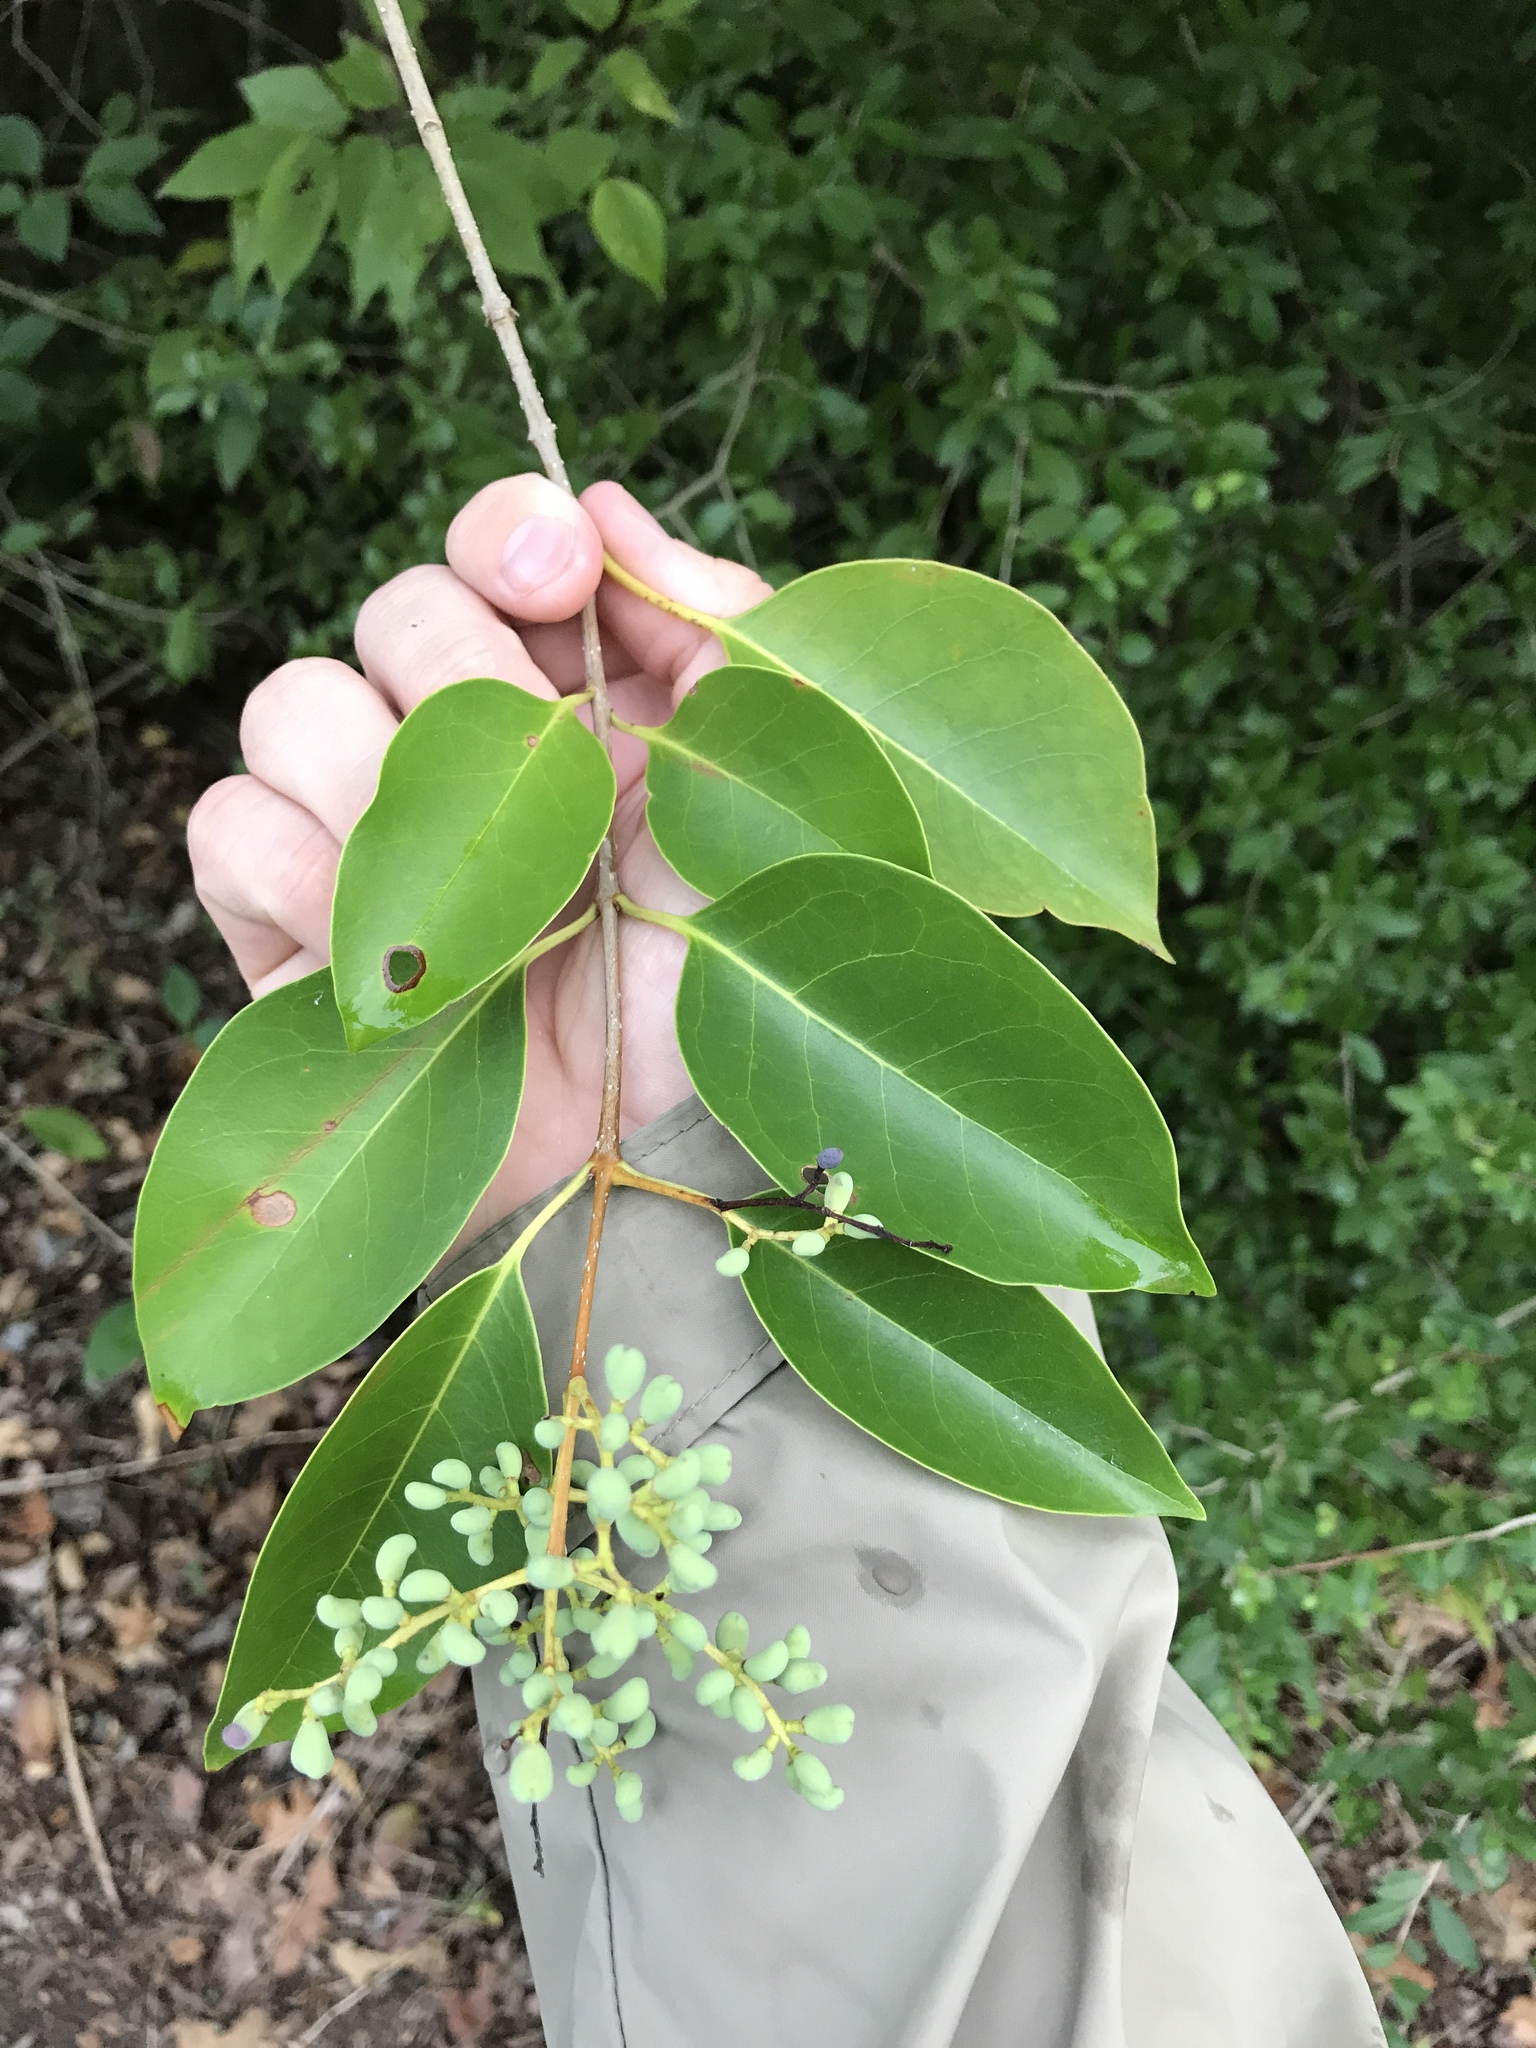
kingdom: Plantae
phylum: Tracheophyta
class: Magnoliopsida
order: Lamiales
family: Oleaceae
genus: Ligustrum
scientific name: Ligustrum lucidum
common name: Glossy privet
